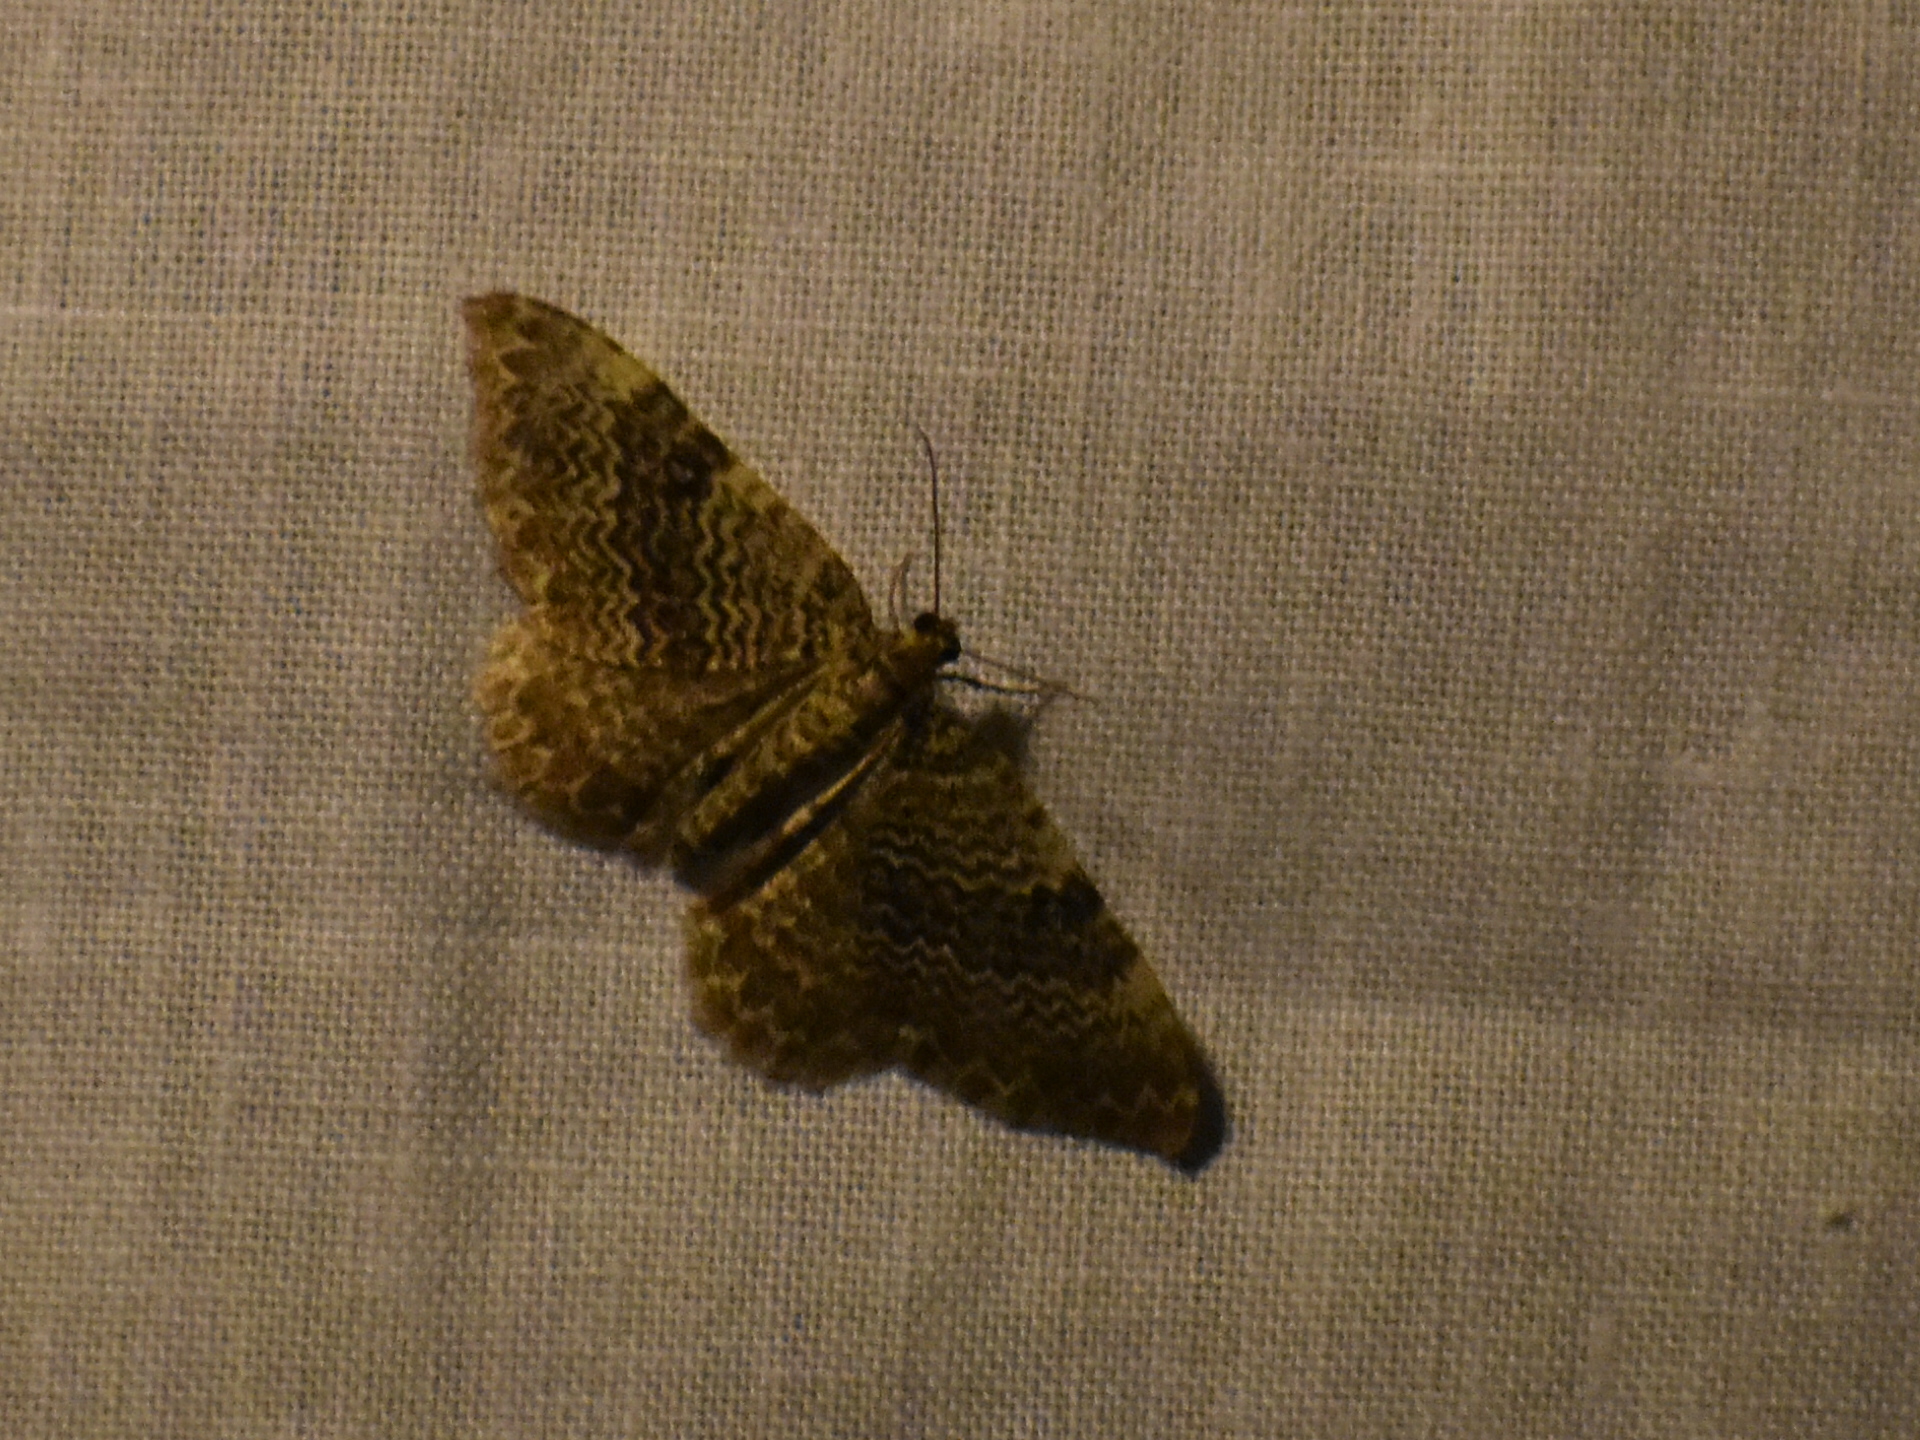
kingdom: Animalia
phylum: Arthropoda
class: Insecta
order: Lepidoptera
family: Geometridae
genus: Rheumaptera
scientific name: Rheumaptera
